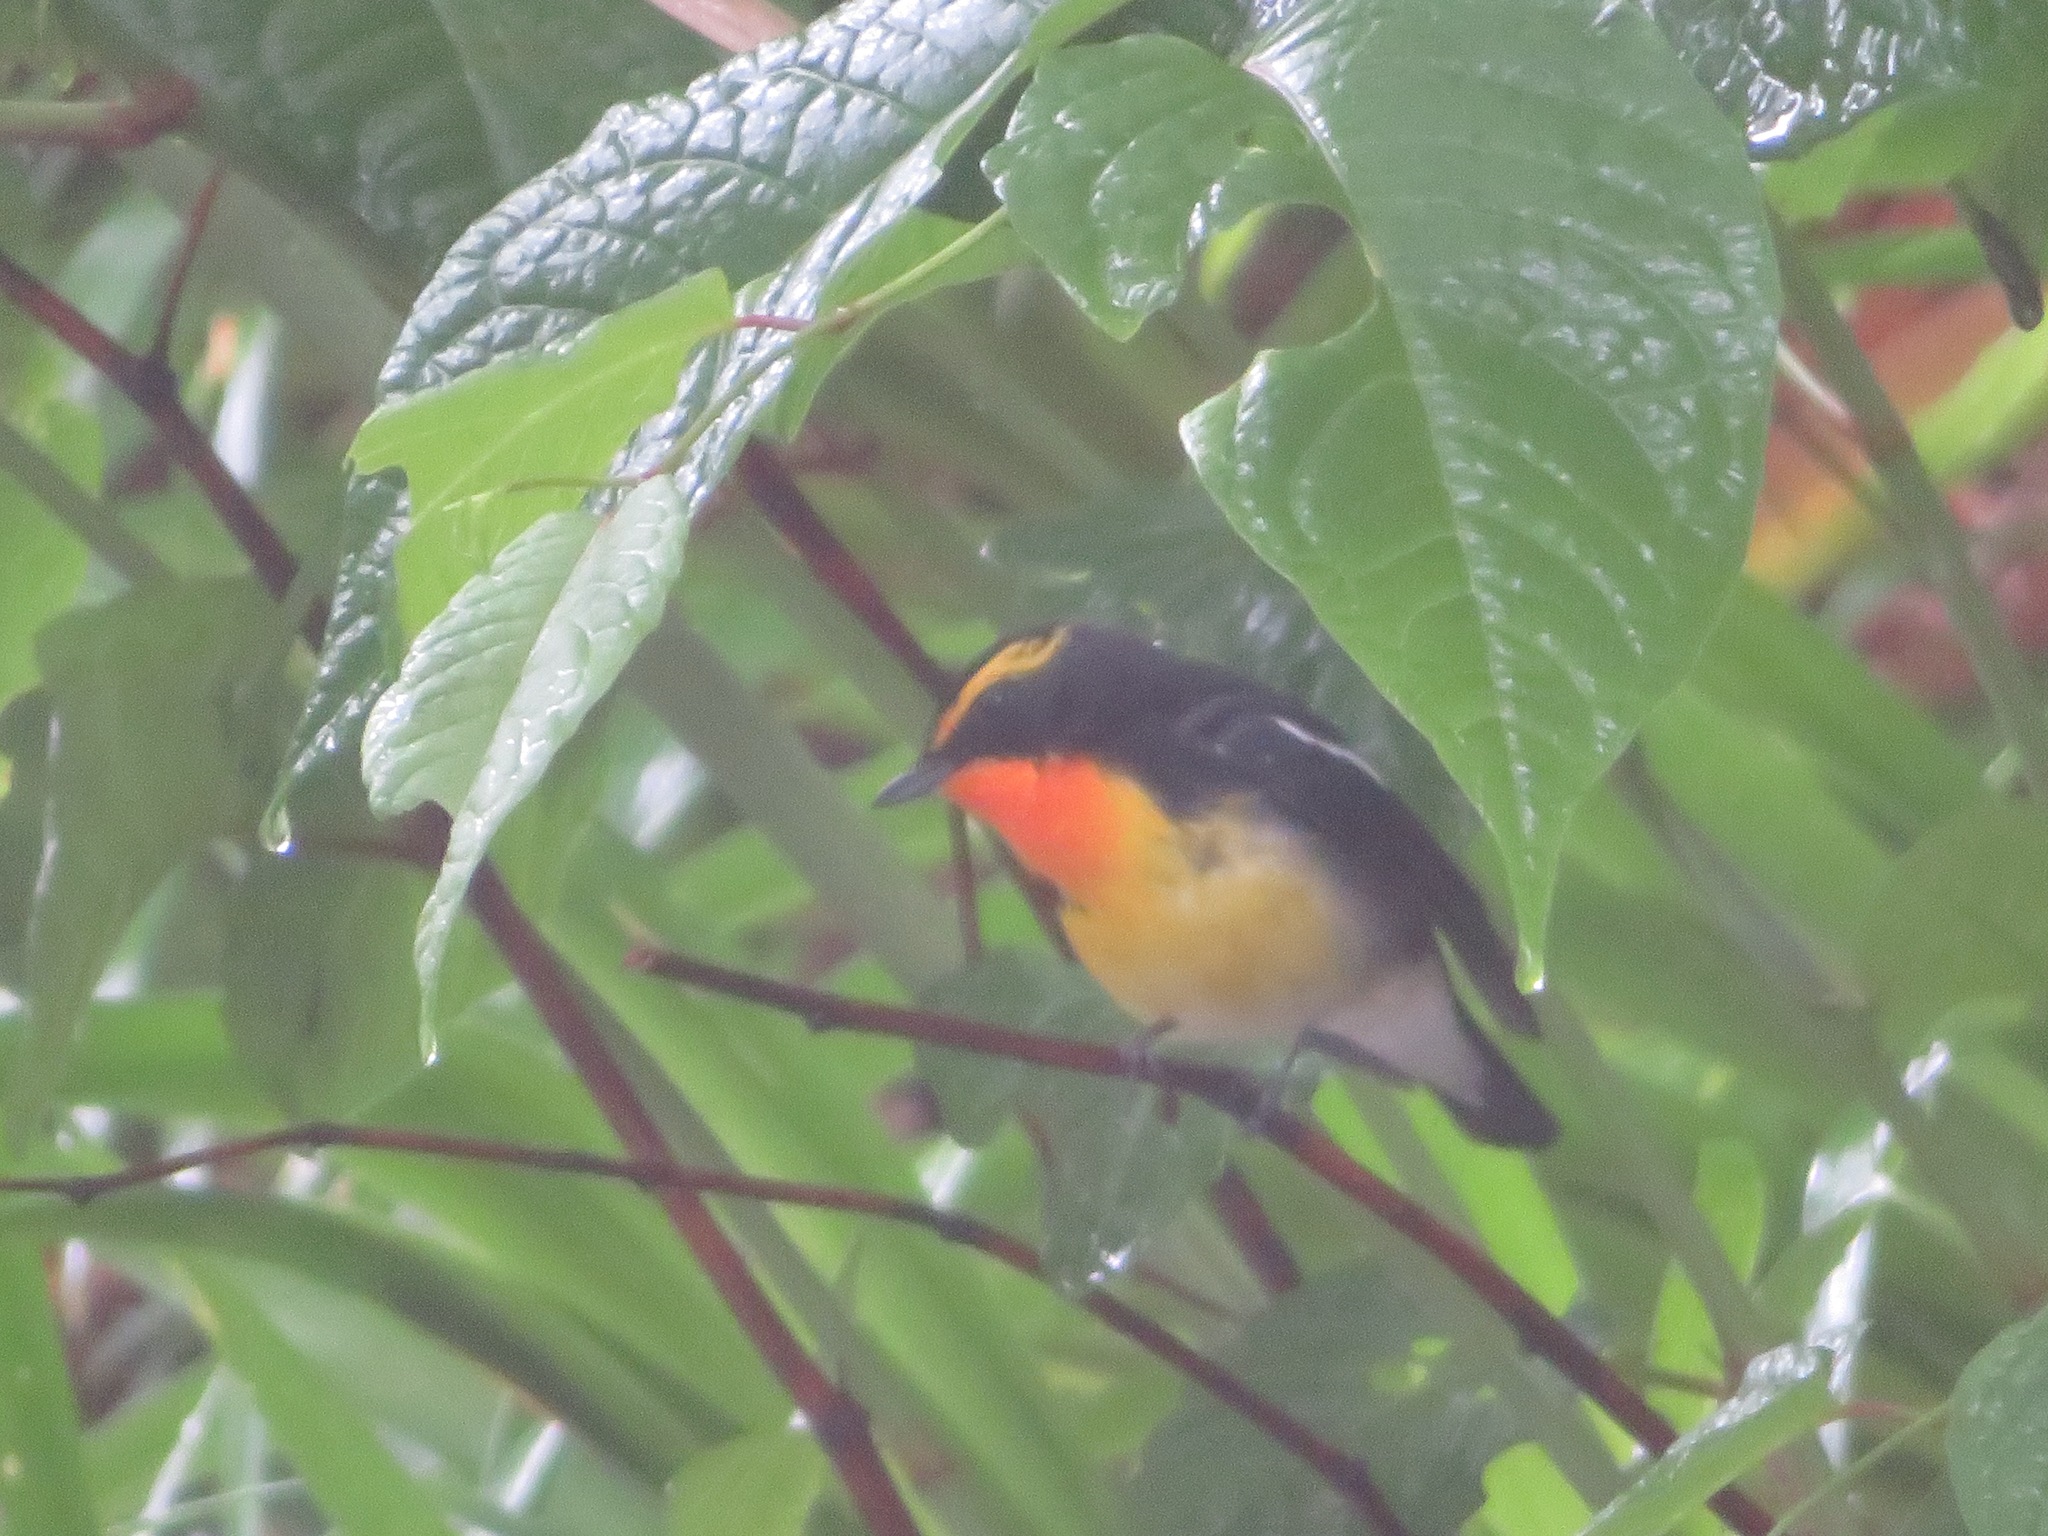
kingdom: Animalia
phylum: Chordata
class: Aves
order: Passeriformes
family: Muscicapidae
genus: Ficedula
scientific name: Ficedula narcissina
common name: Narcissus flycatcher
